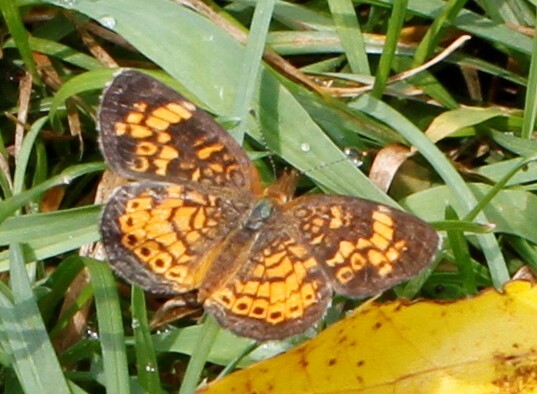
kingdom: Animalia
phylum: Arthropoda
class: Insecta
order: Lepidoptera
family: Nymphalidae
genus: Phyciodes
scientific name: Phyciodes tharos
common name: Pearl crescent
